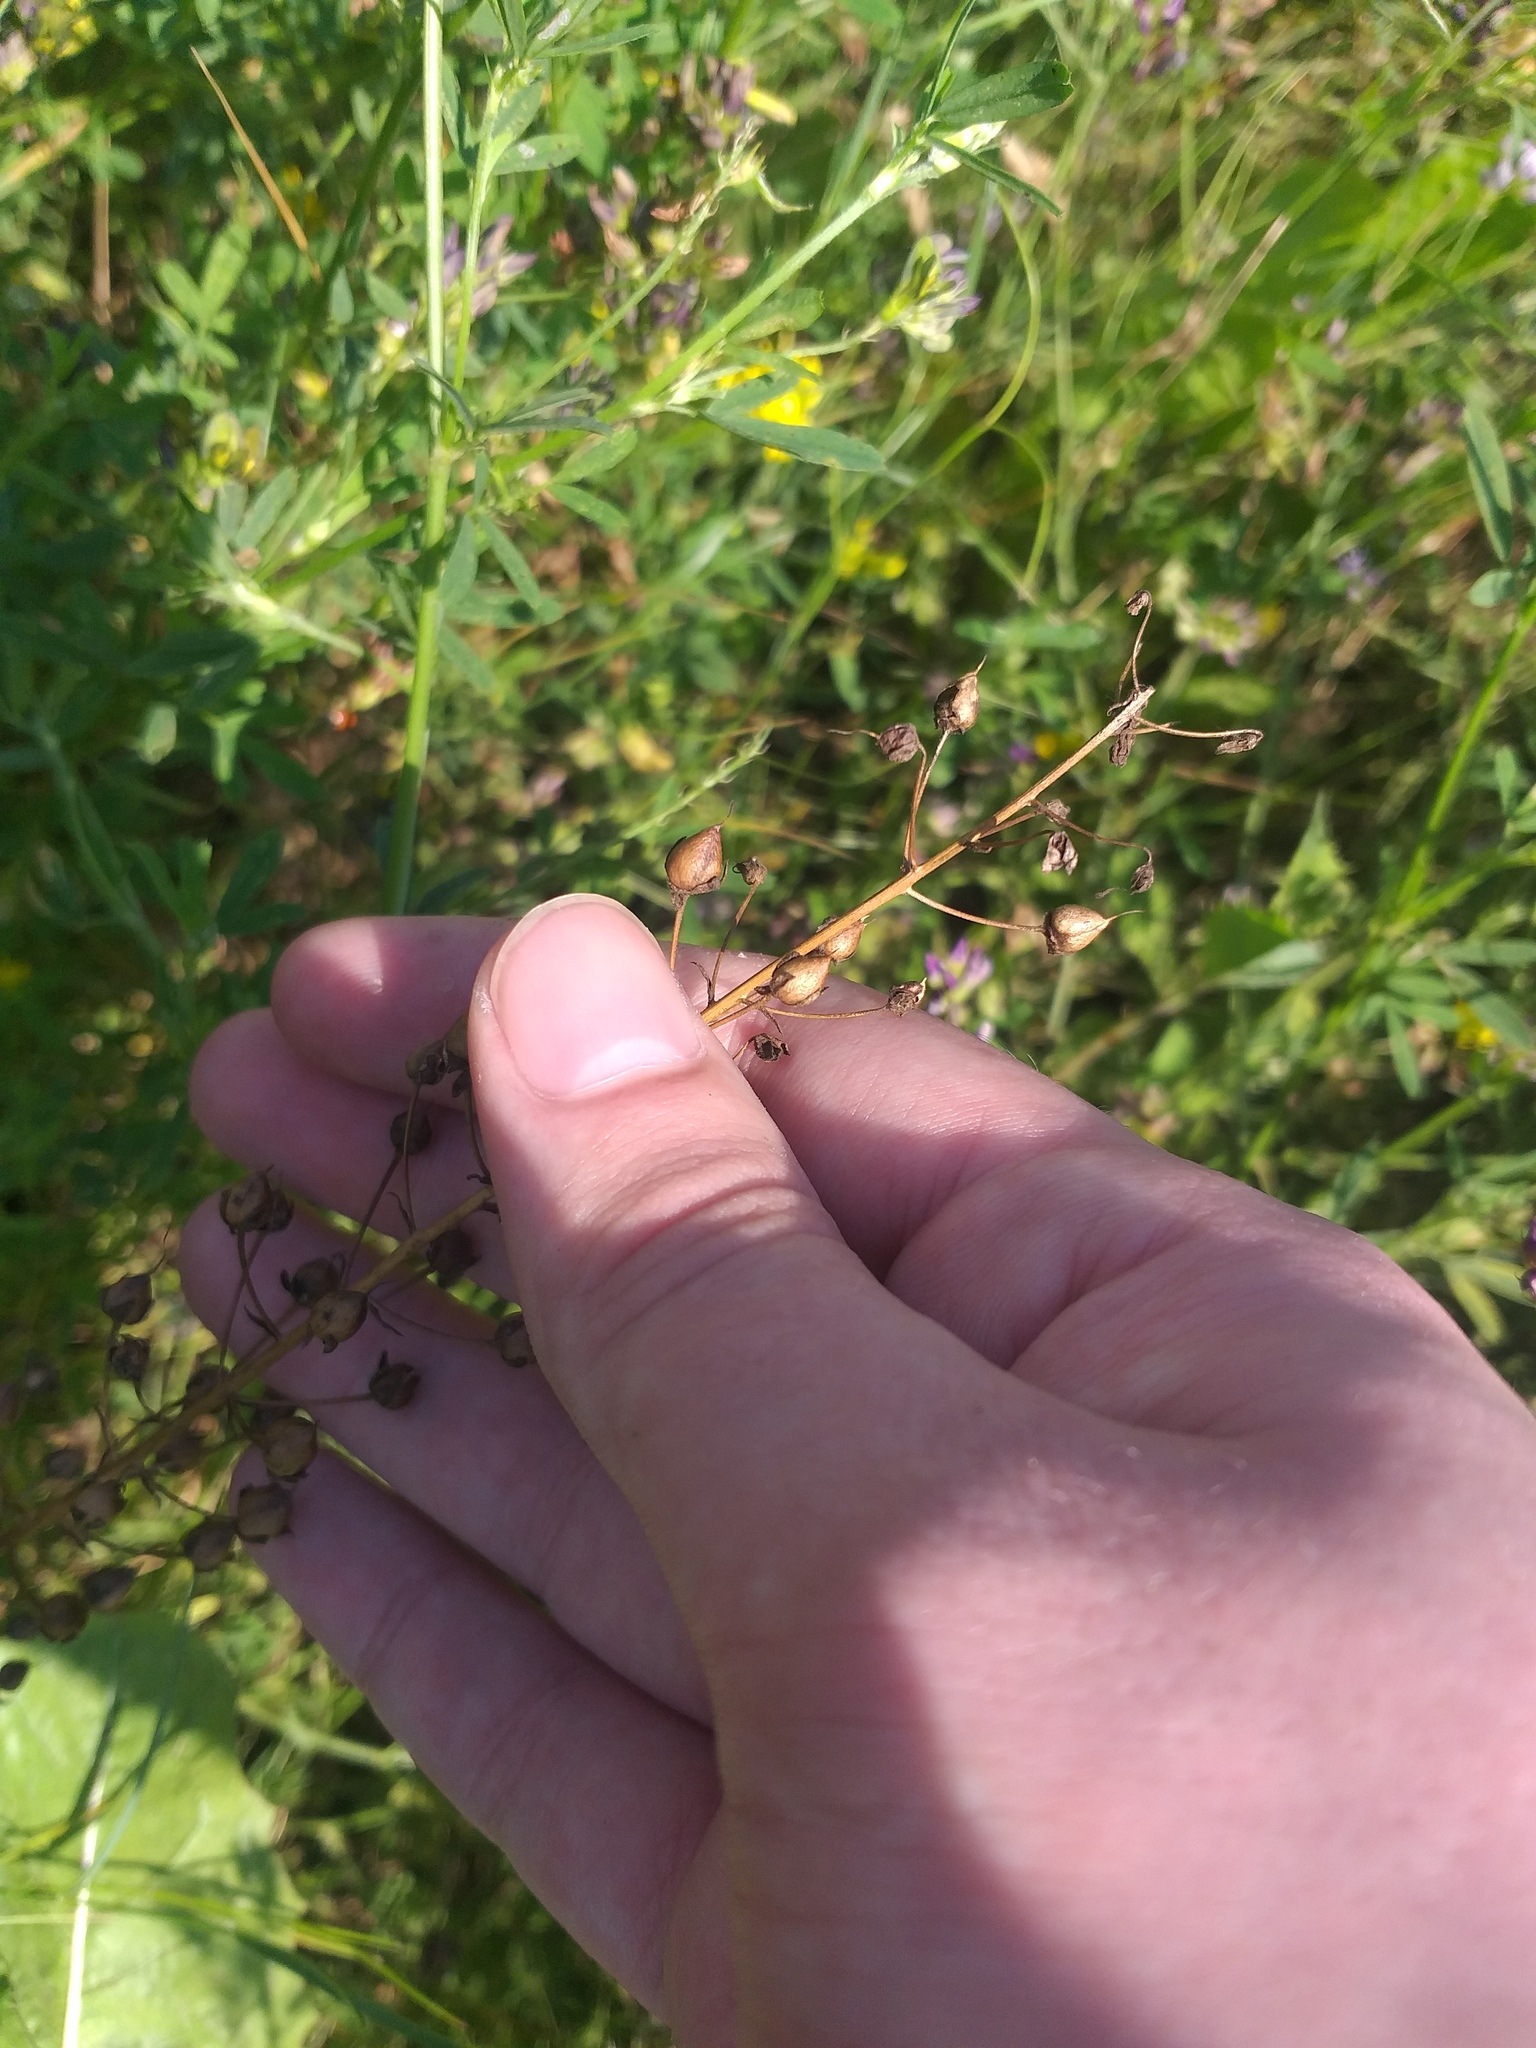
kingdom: Plantae
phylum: Tracheophyta
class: Magnoliopsida
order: Lamiales
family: Scrophulariaceae
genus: Verbascum
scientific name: Verbascum phoeniceum
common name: Purple mullein
